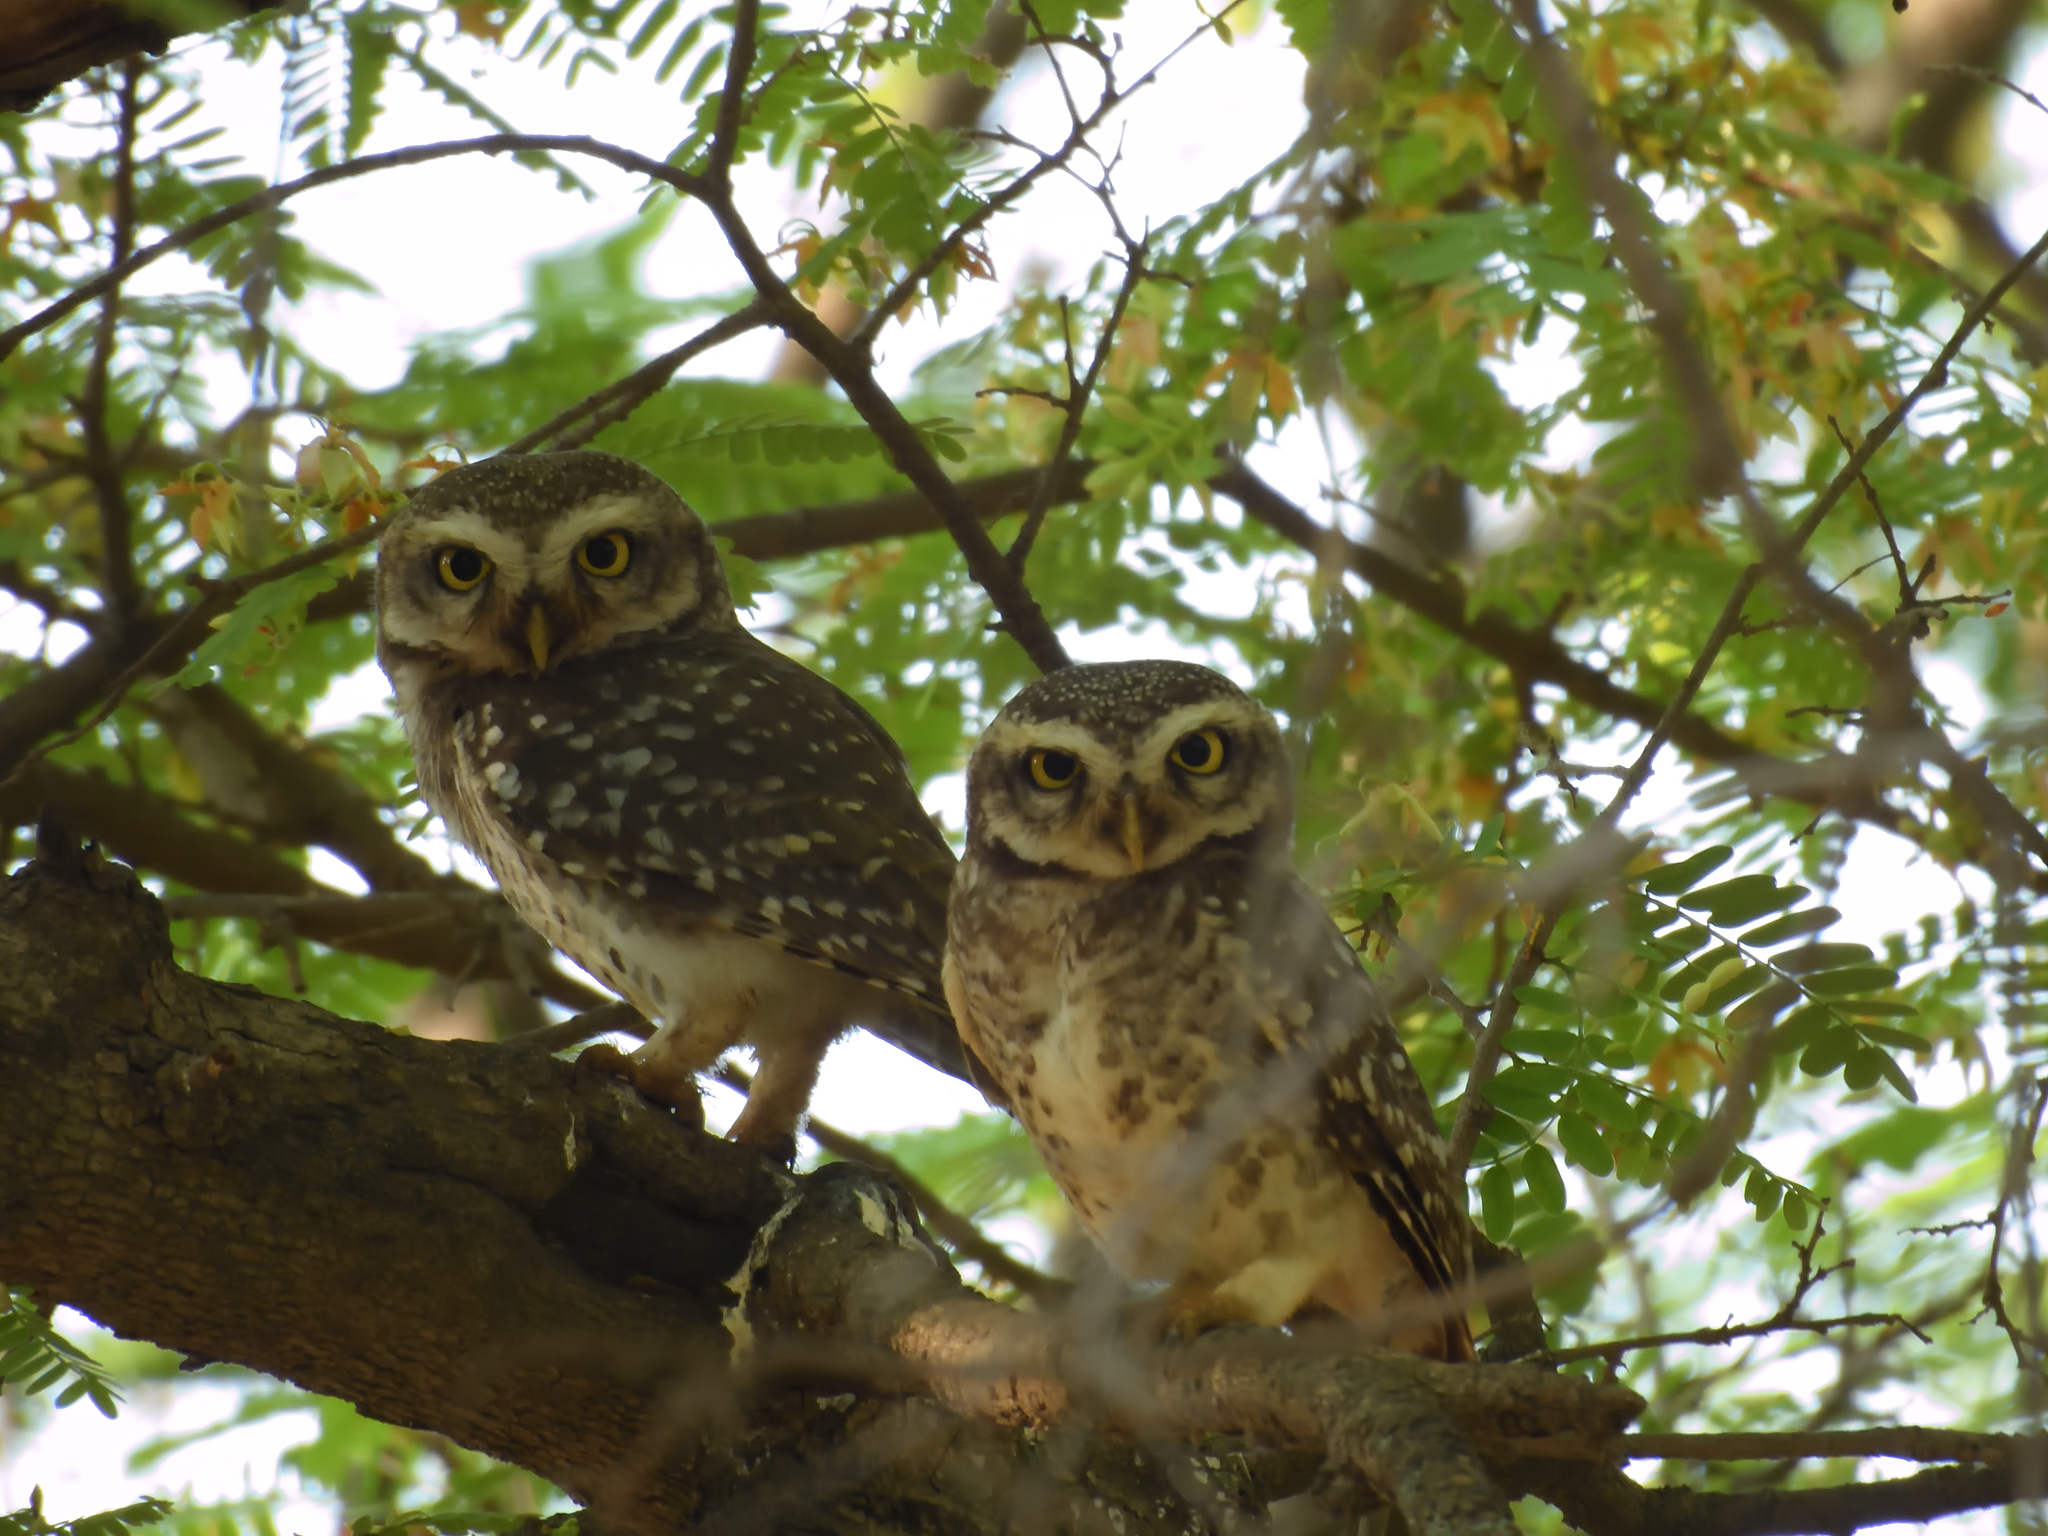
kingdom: Animalia
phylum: Chordata
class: Aves
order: Strigiformes
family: Strigidae
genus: Athene
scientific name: Athene brama
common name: Spotted owlet
